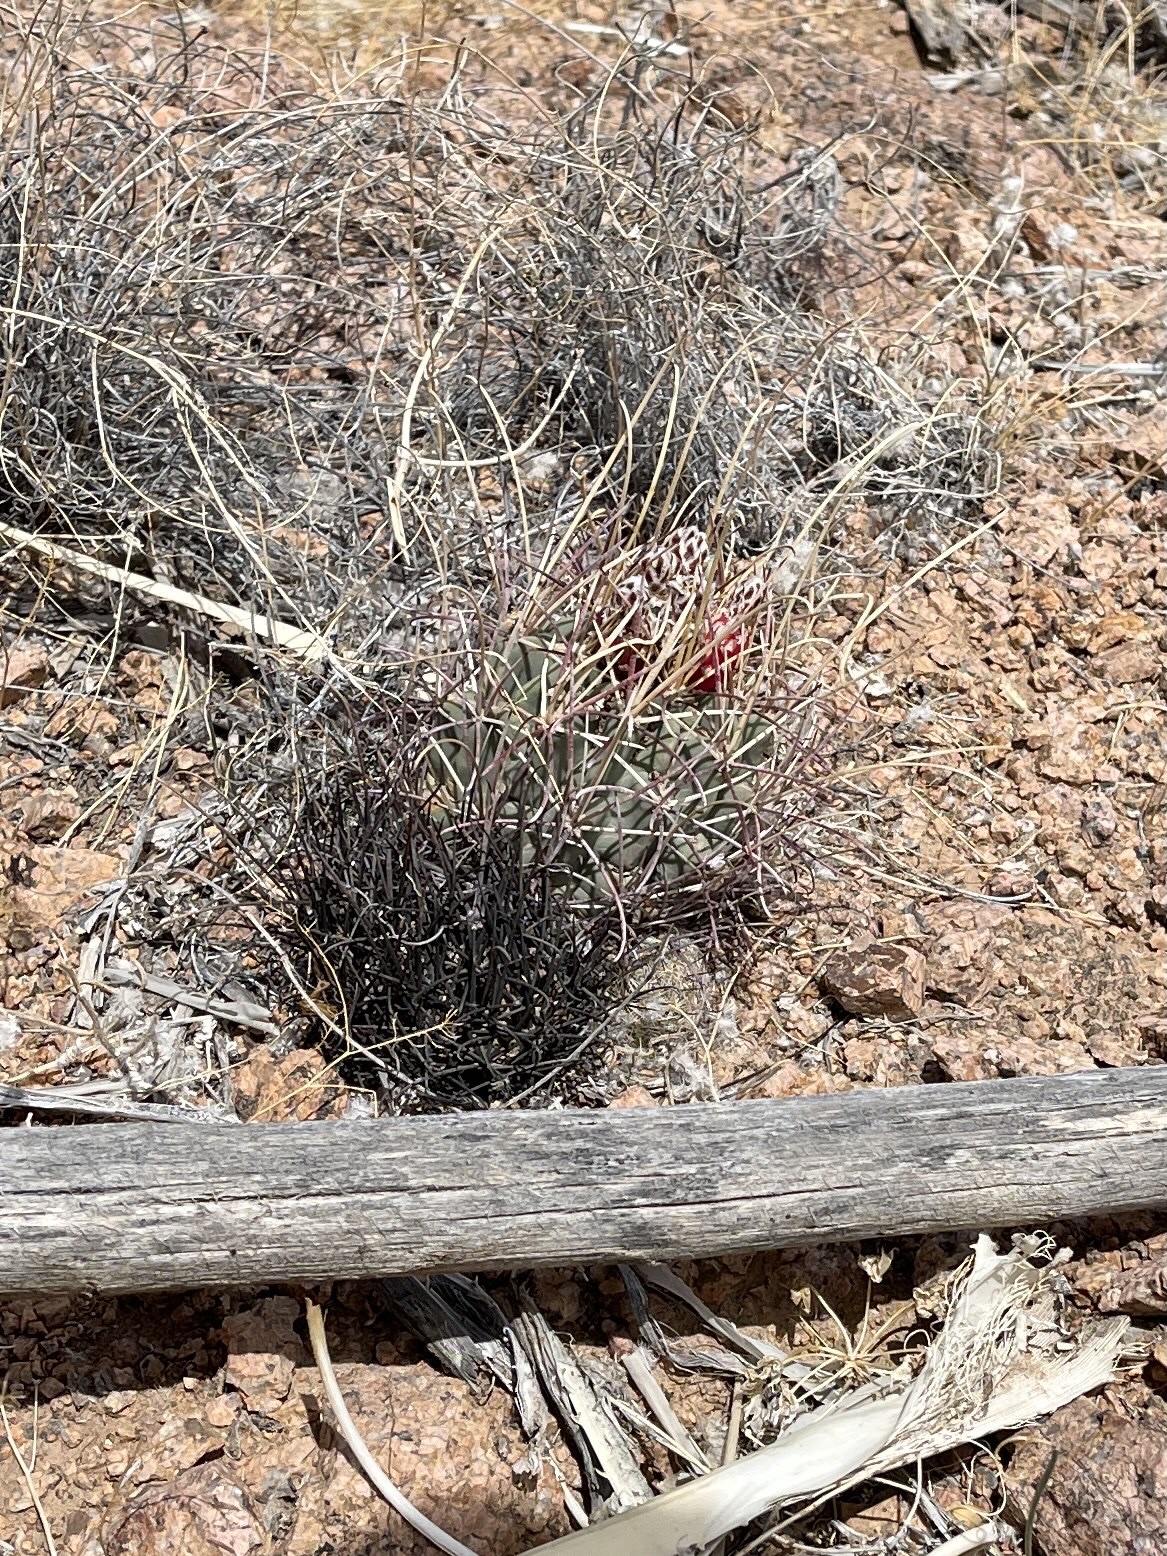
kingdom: Plantae
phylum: Tracheophyta
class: Magnoliopsida
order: Caryophyllales
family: Cactaceae
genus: Ferocactus
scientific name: Ferocactus uncinatus
